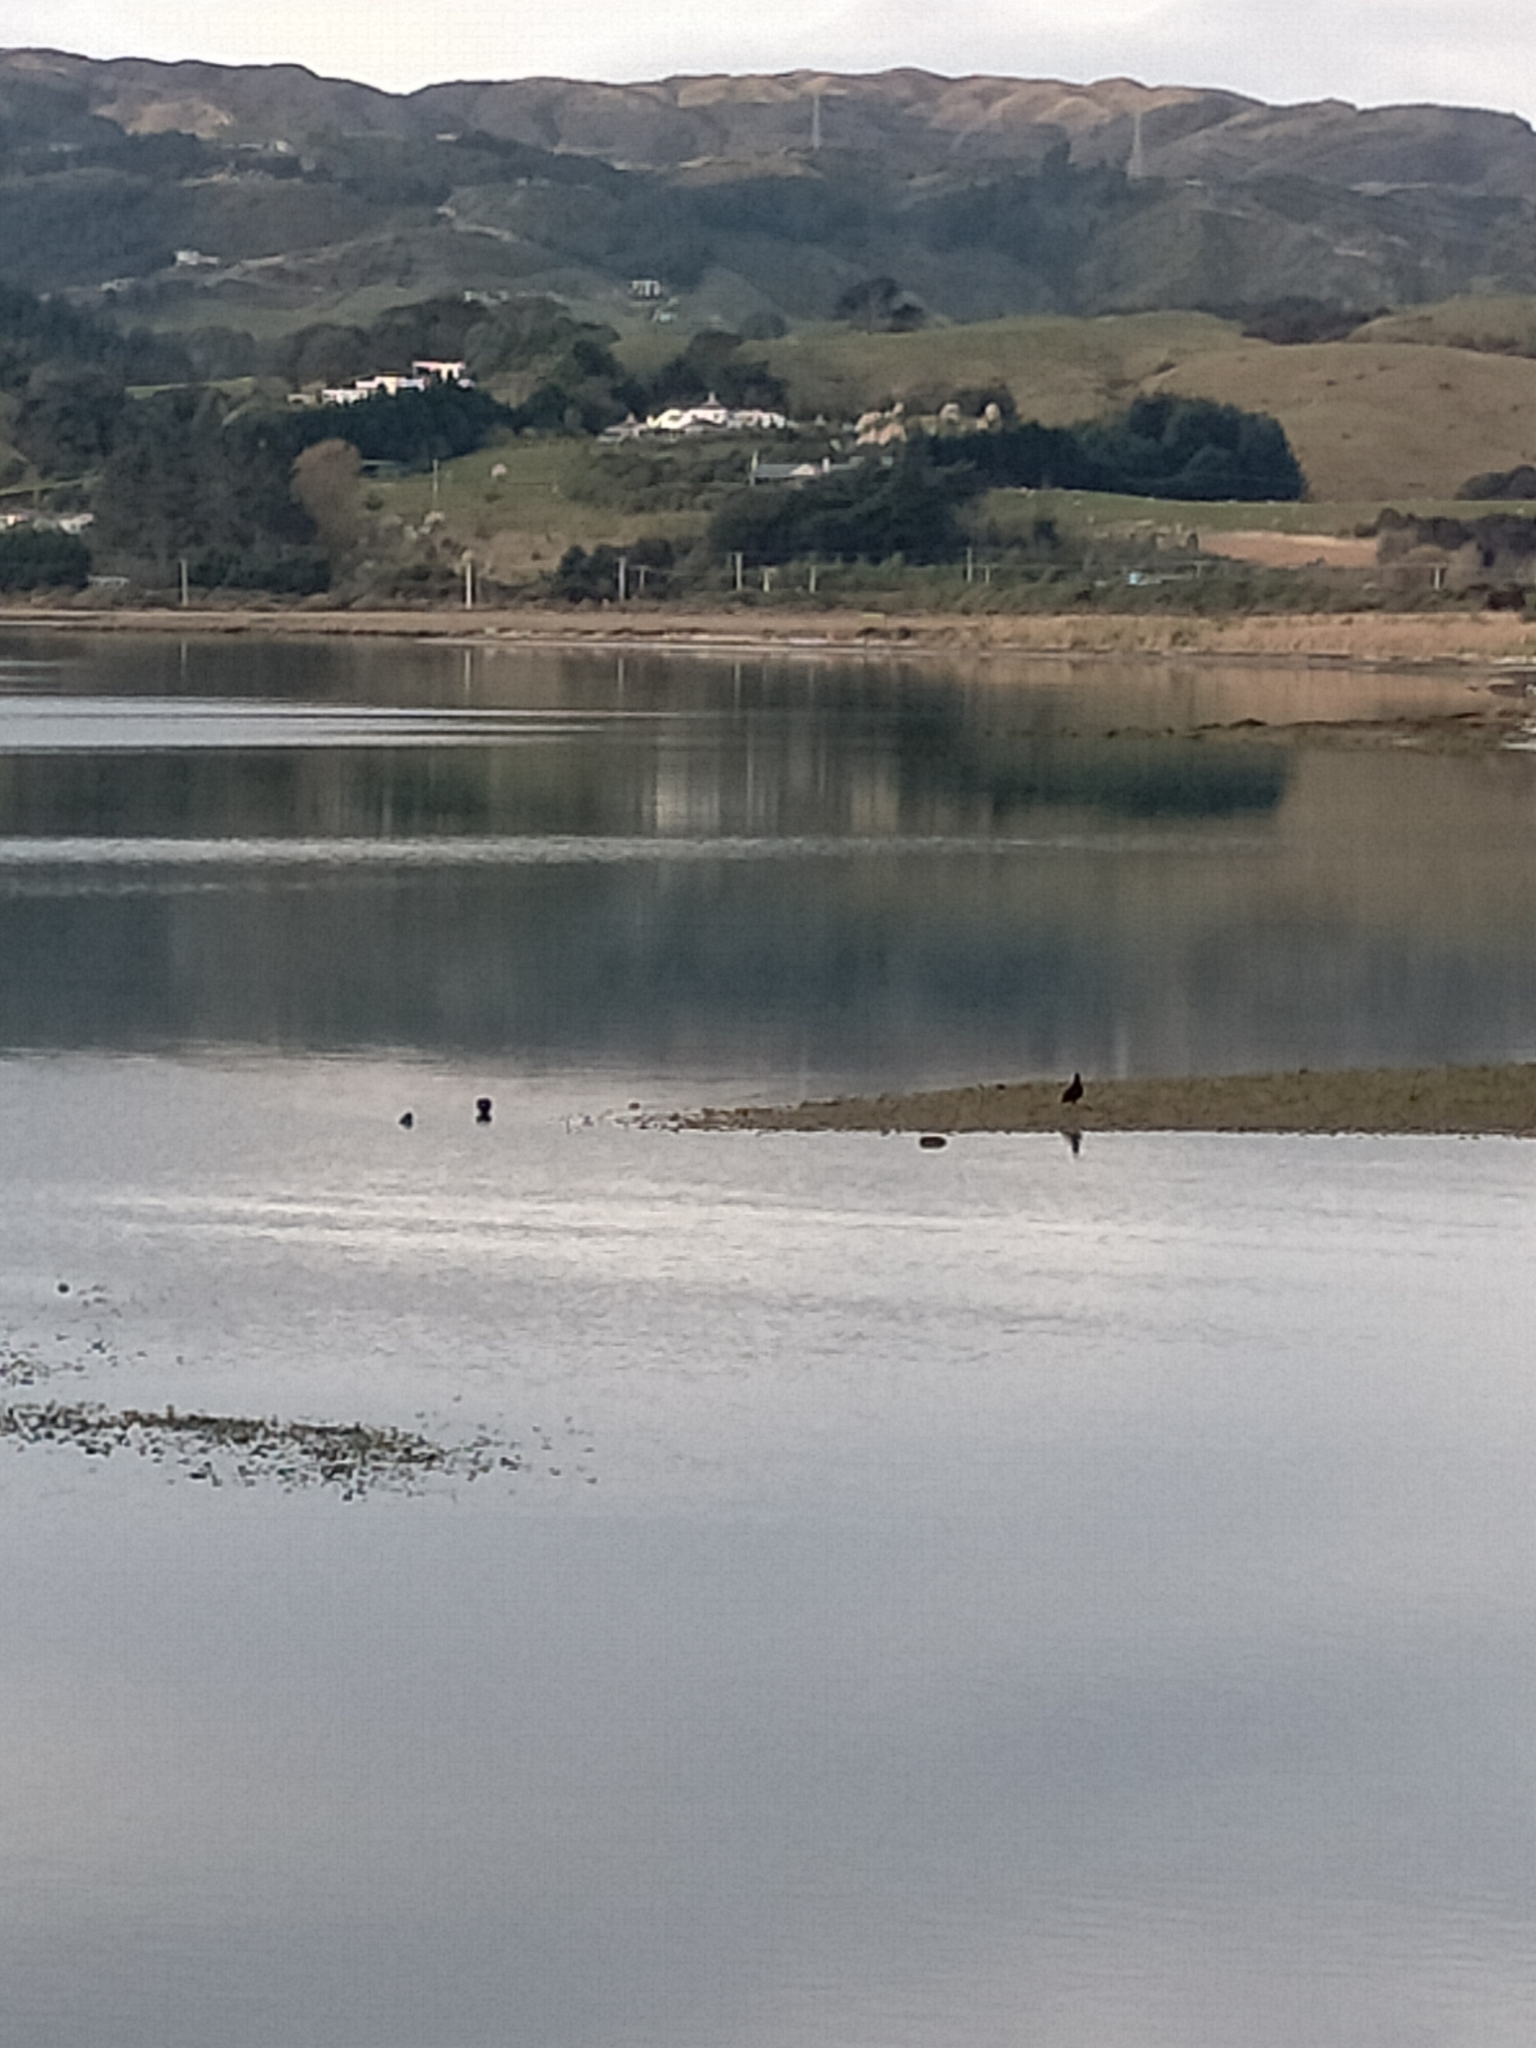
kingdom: Animalia
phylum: Chordata
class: Aves
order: Charadriiformes
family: Haematopodidae
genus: Haematopus
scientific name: Haematopus unicolor
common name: Variable oystercatcher
